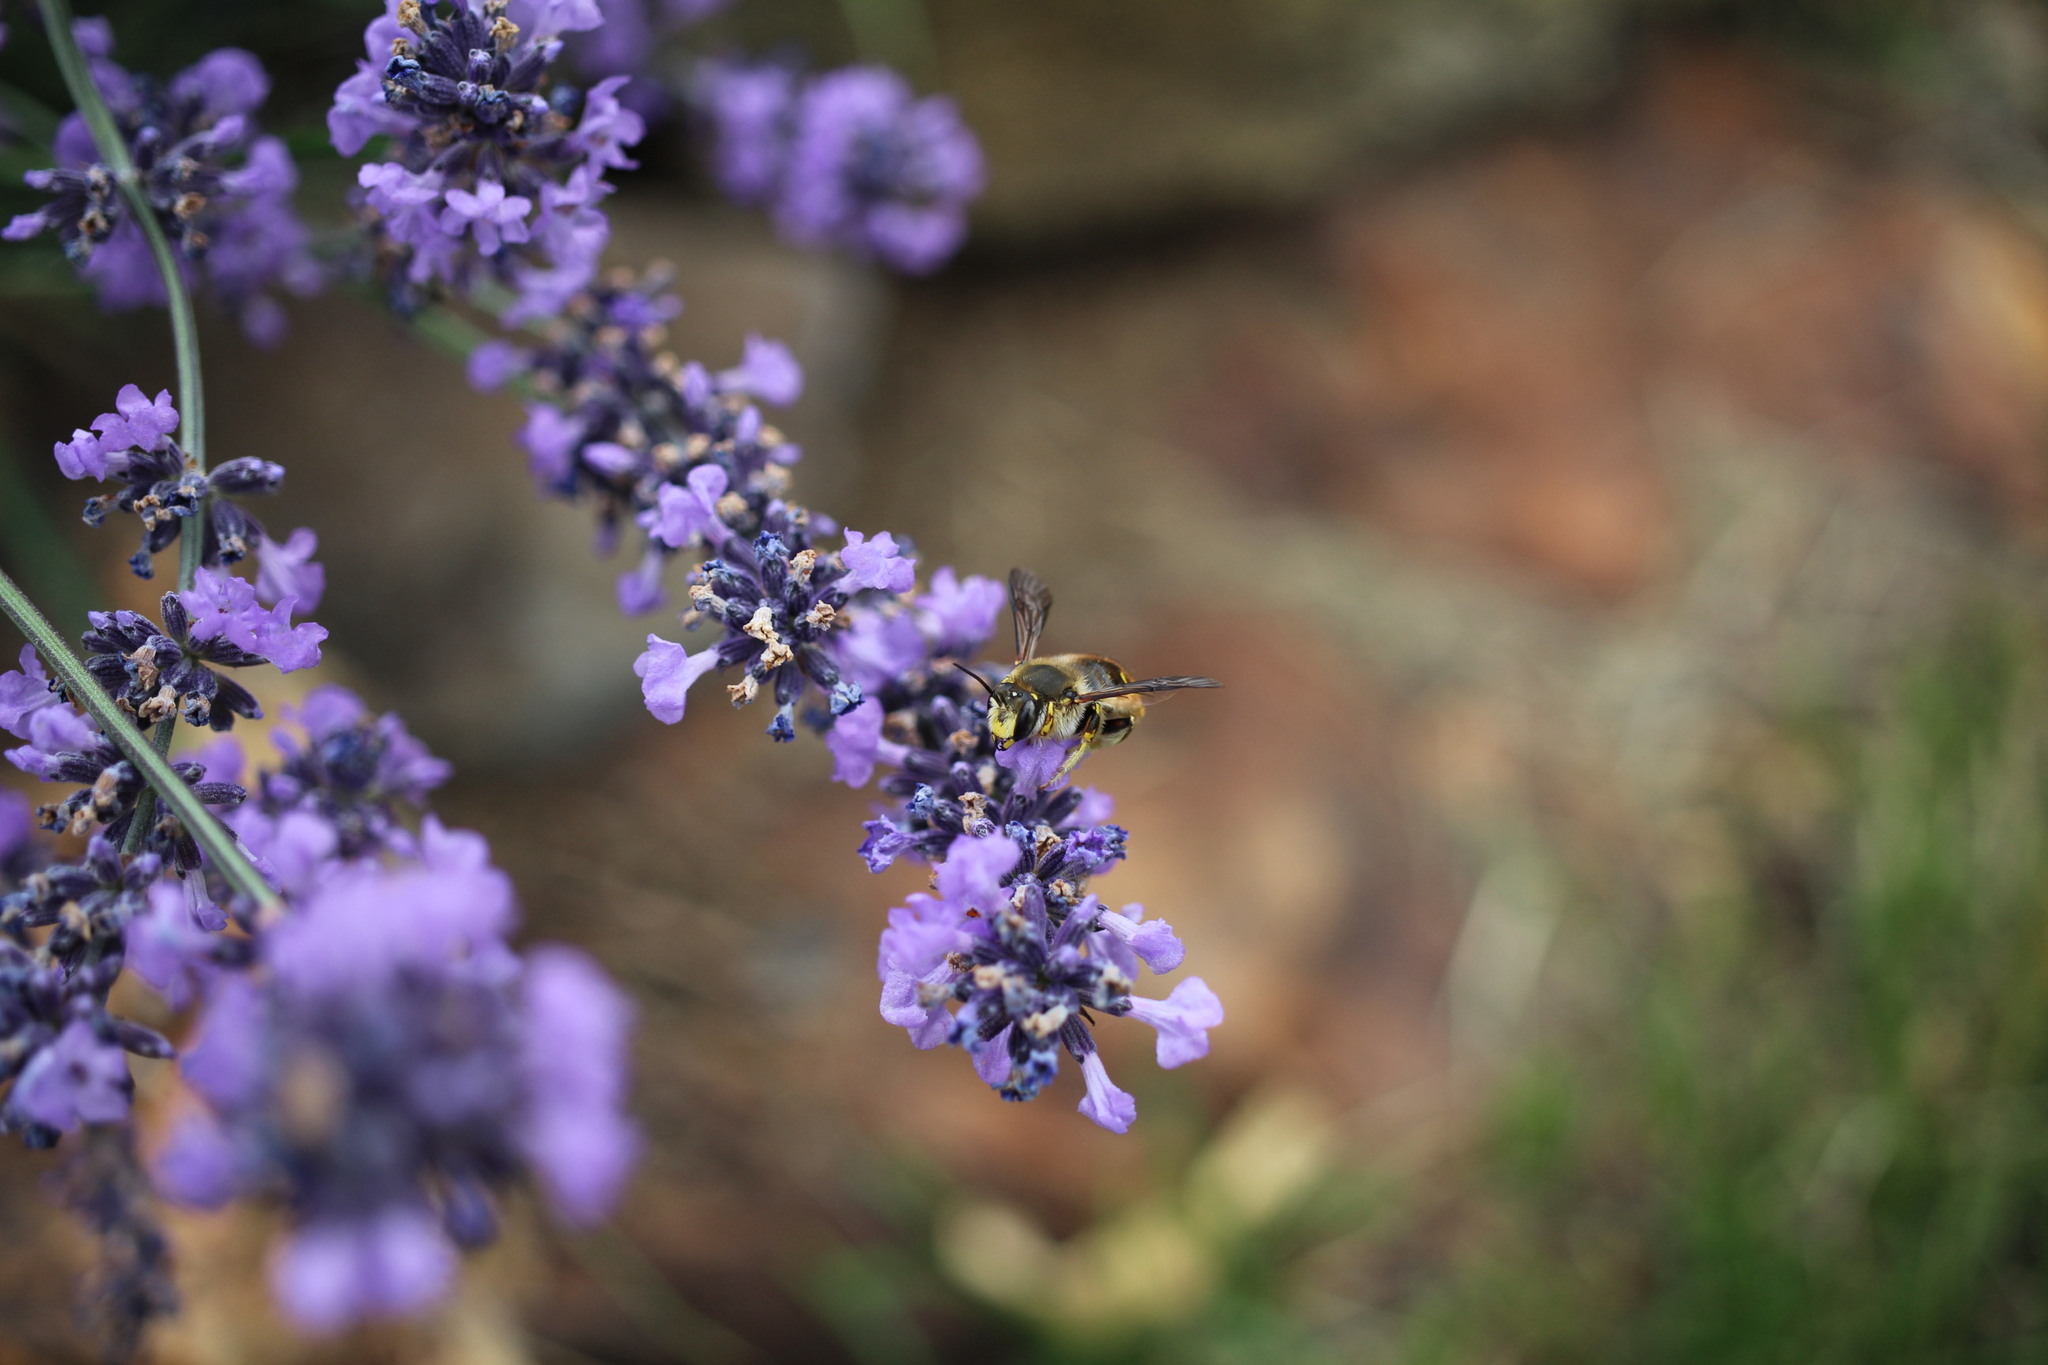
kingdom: Animalia
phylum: Arthropoda
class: Insecta
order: Hymenoptera
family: Megachilidae
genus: Anthidium
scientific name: Anthidium manicatum
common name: Wool carder bee
